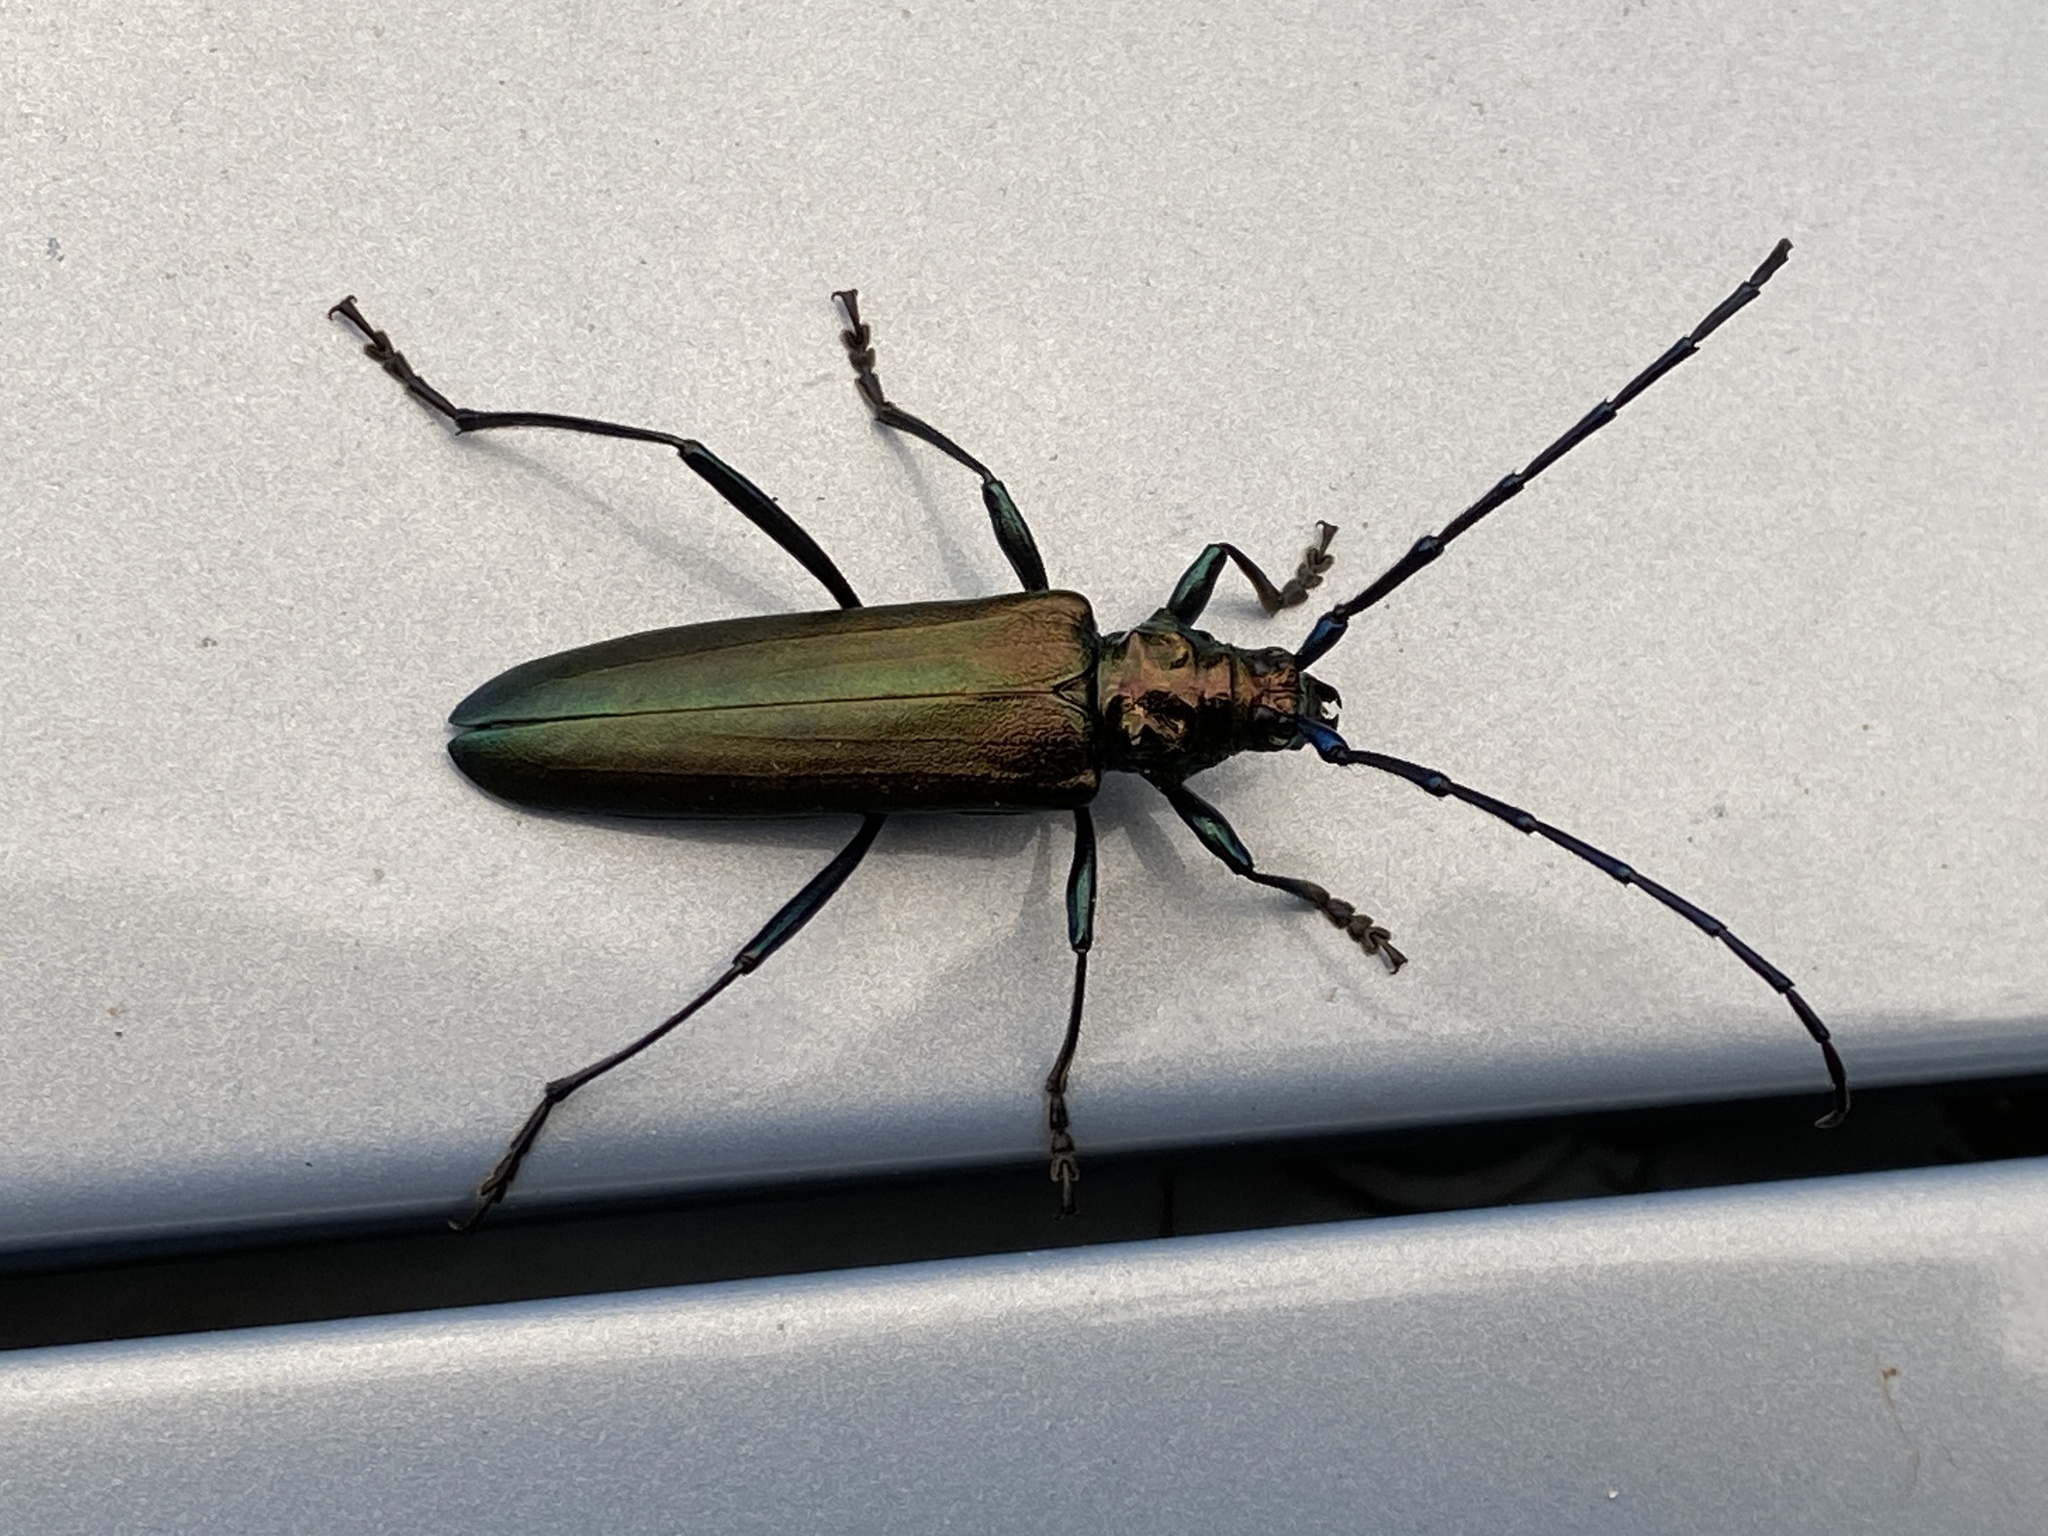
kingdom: Animalia
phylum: Arthropoda
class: Insecta
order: Coleoptera
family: Cerambycidae
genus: Aromia
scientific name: Aromia moschata
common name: Musk beetle
